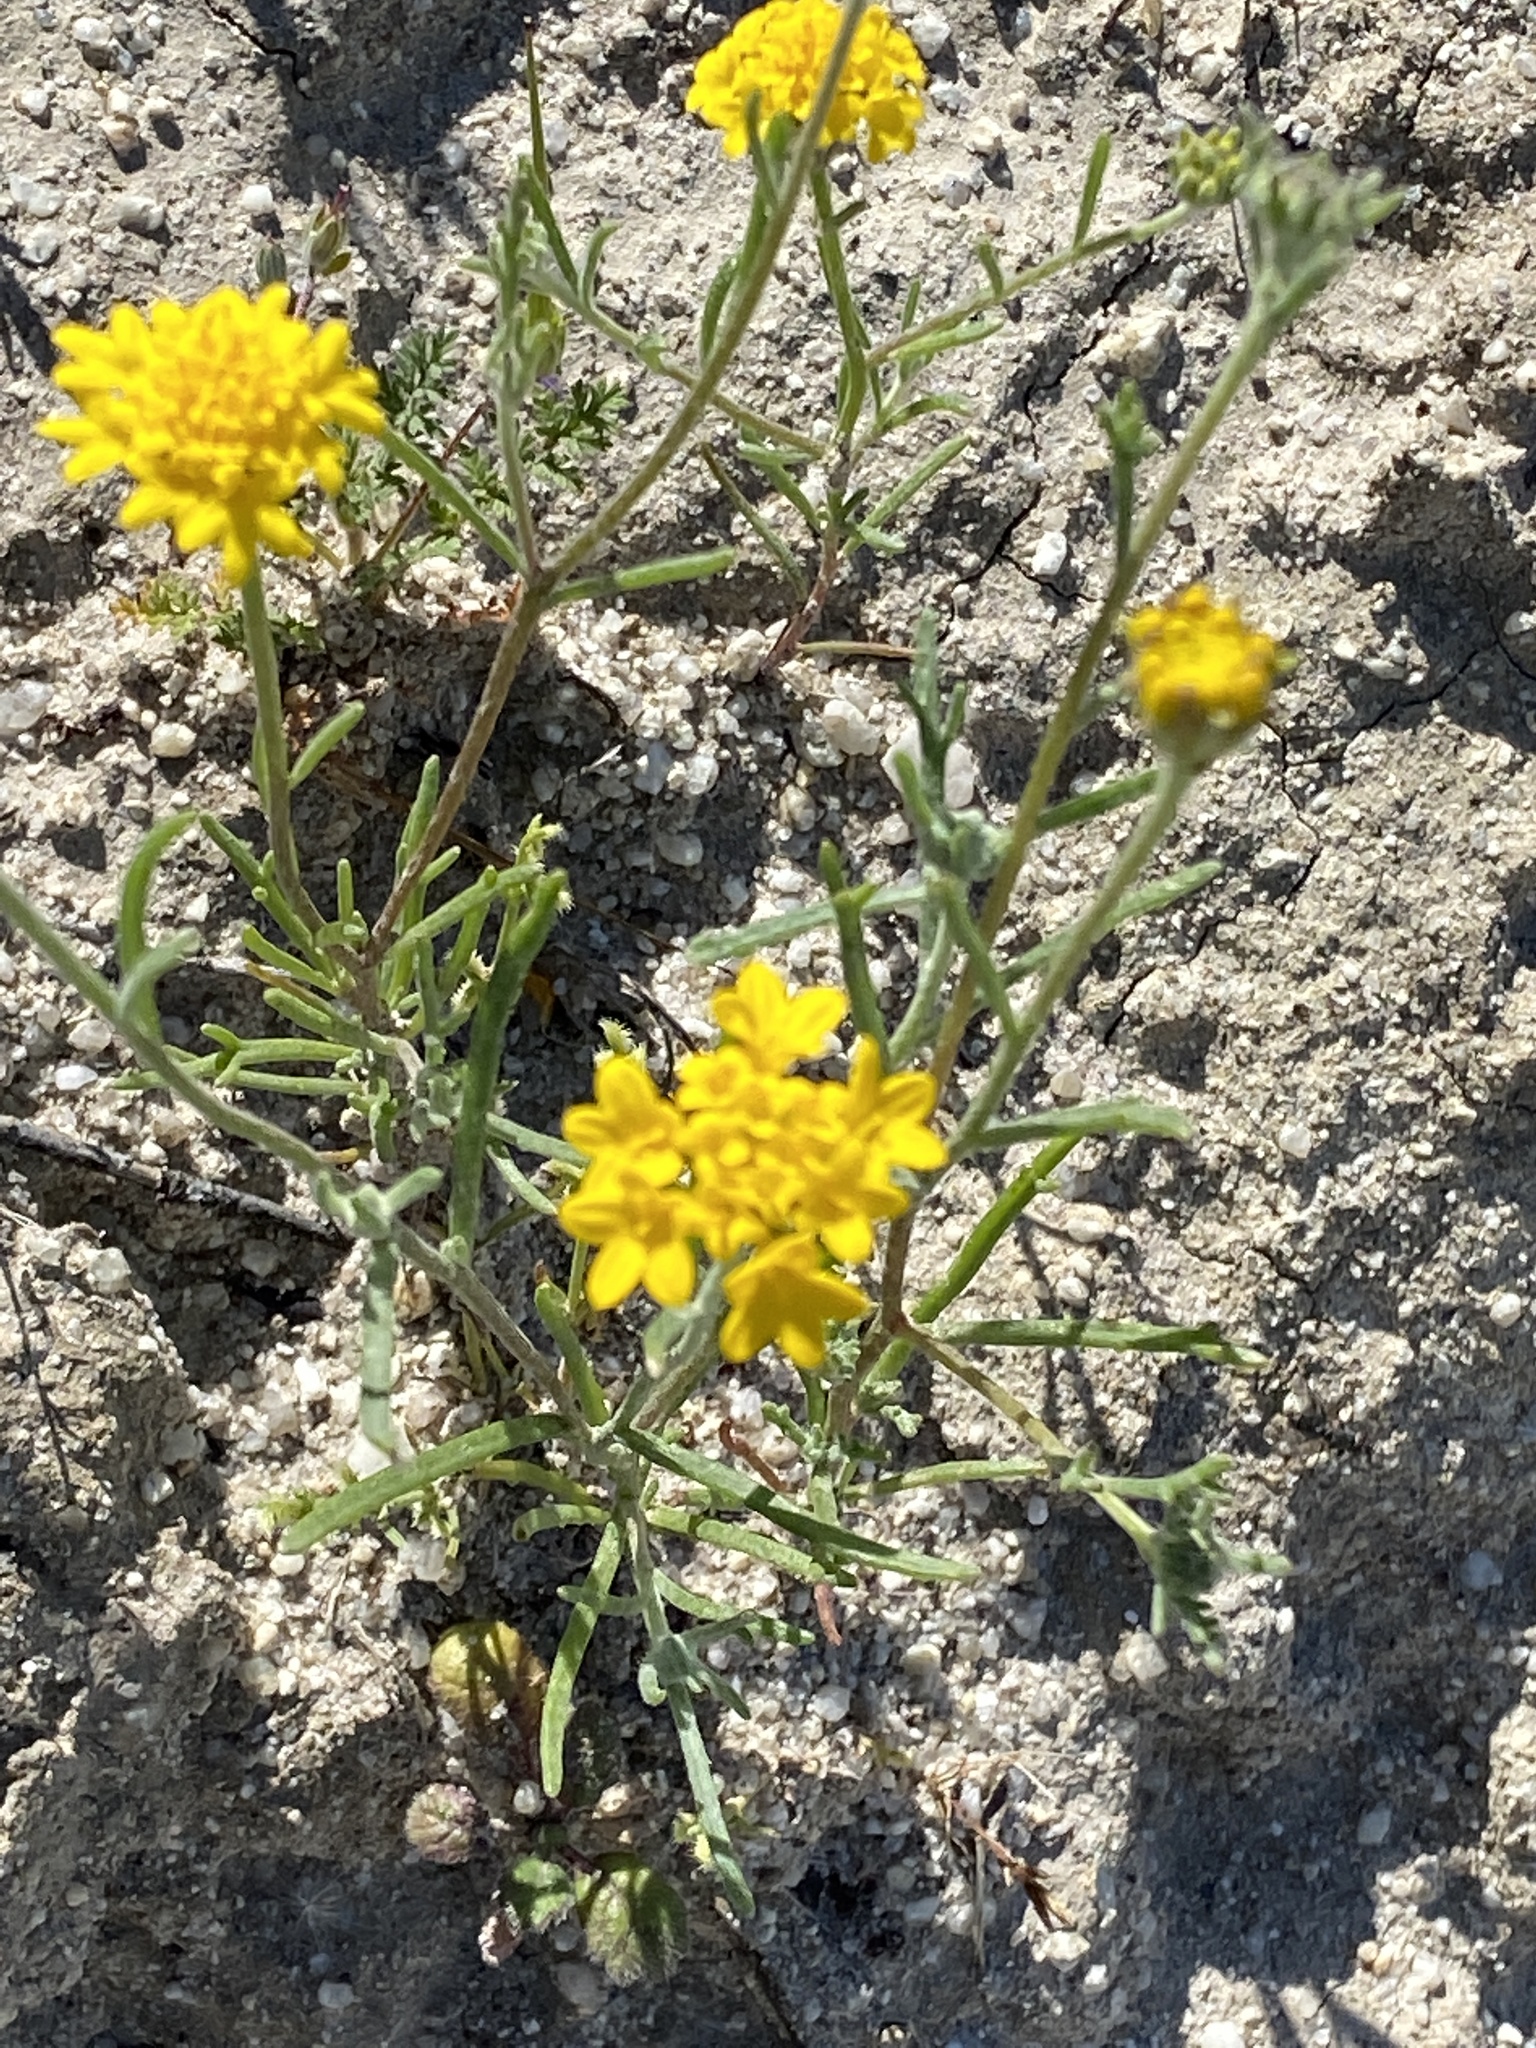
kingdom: Plantae
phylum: Tracheophyta
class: Magnoliopsida
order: Asterales
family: Asteraceae
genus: Chaenactis
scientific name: Chaenactis glabriuscula
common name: Yellow pincushion
